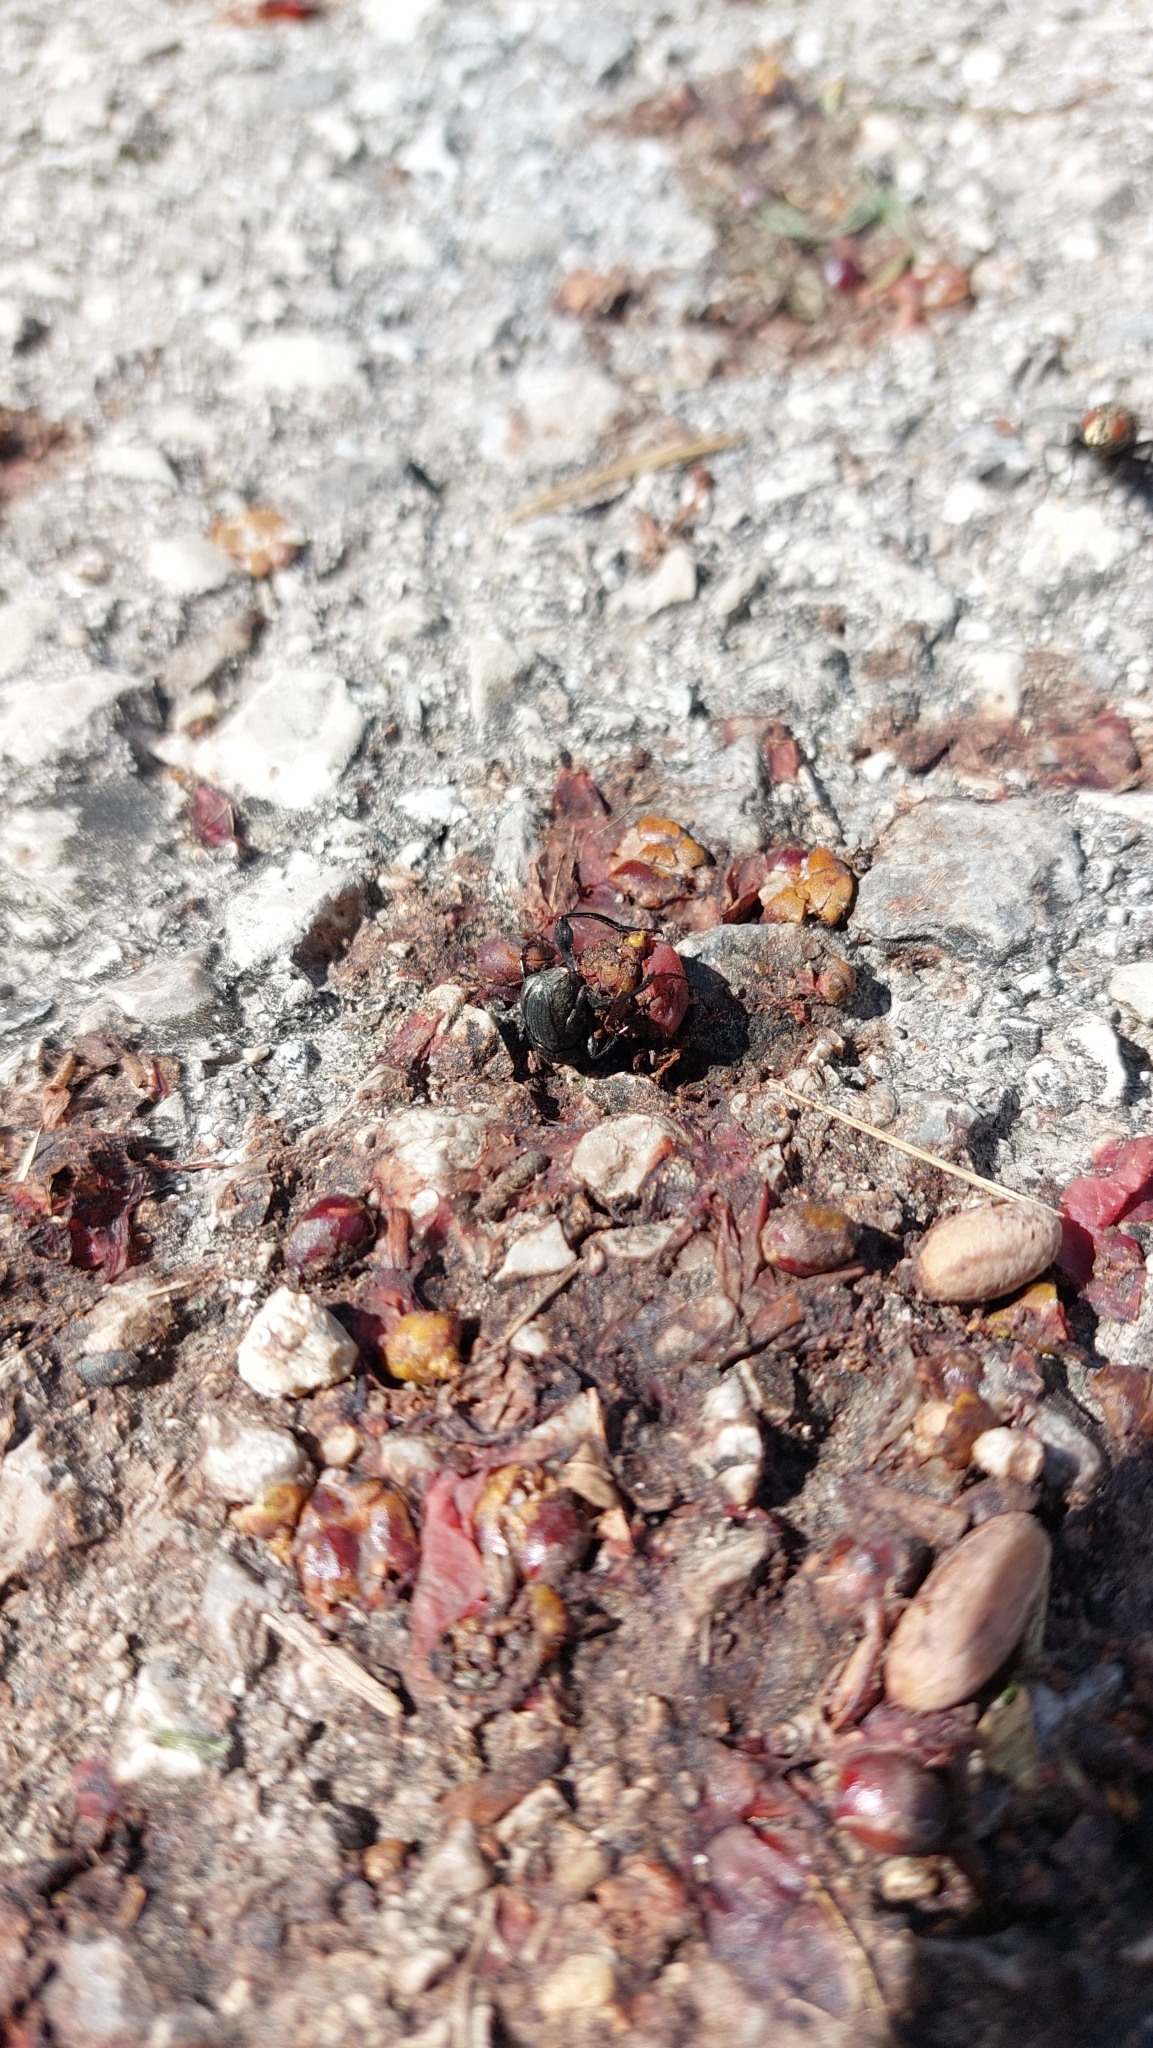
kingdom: Animalia
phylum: Arthropoda
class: Insecta
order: Coleoptera
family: Scarabaeidae
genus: Sisyphus
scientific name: Sisyphus schaefferi
